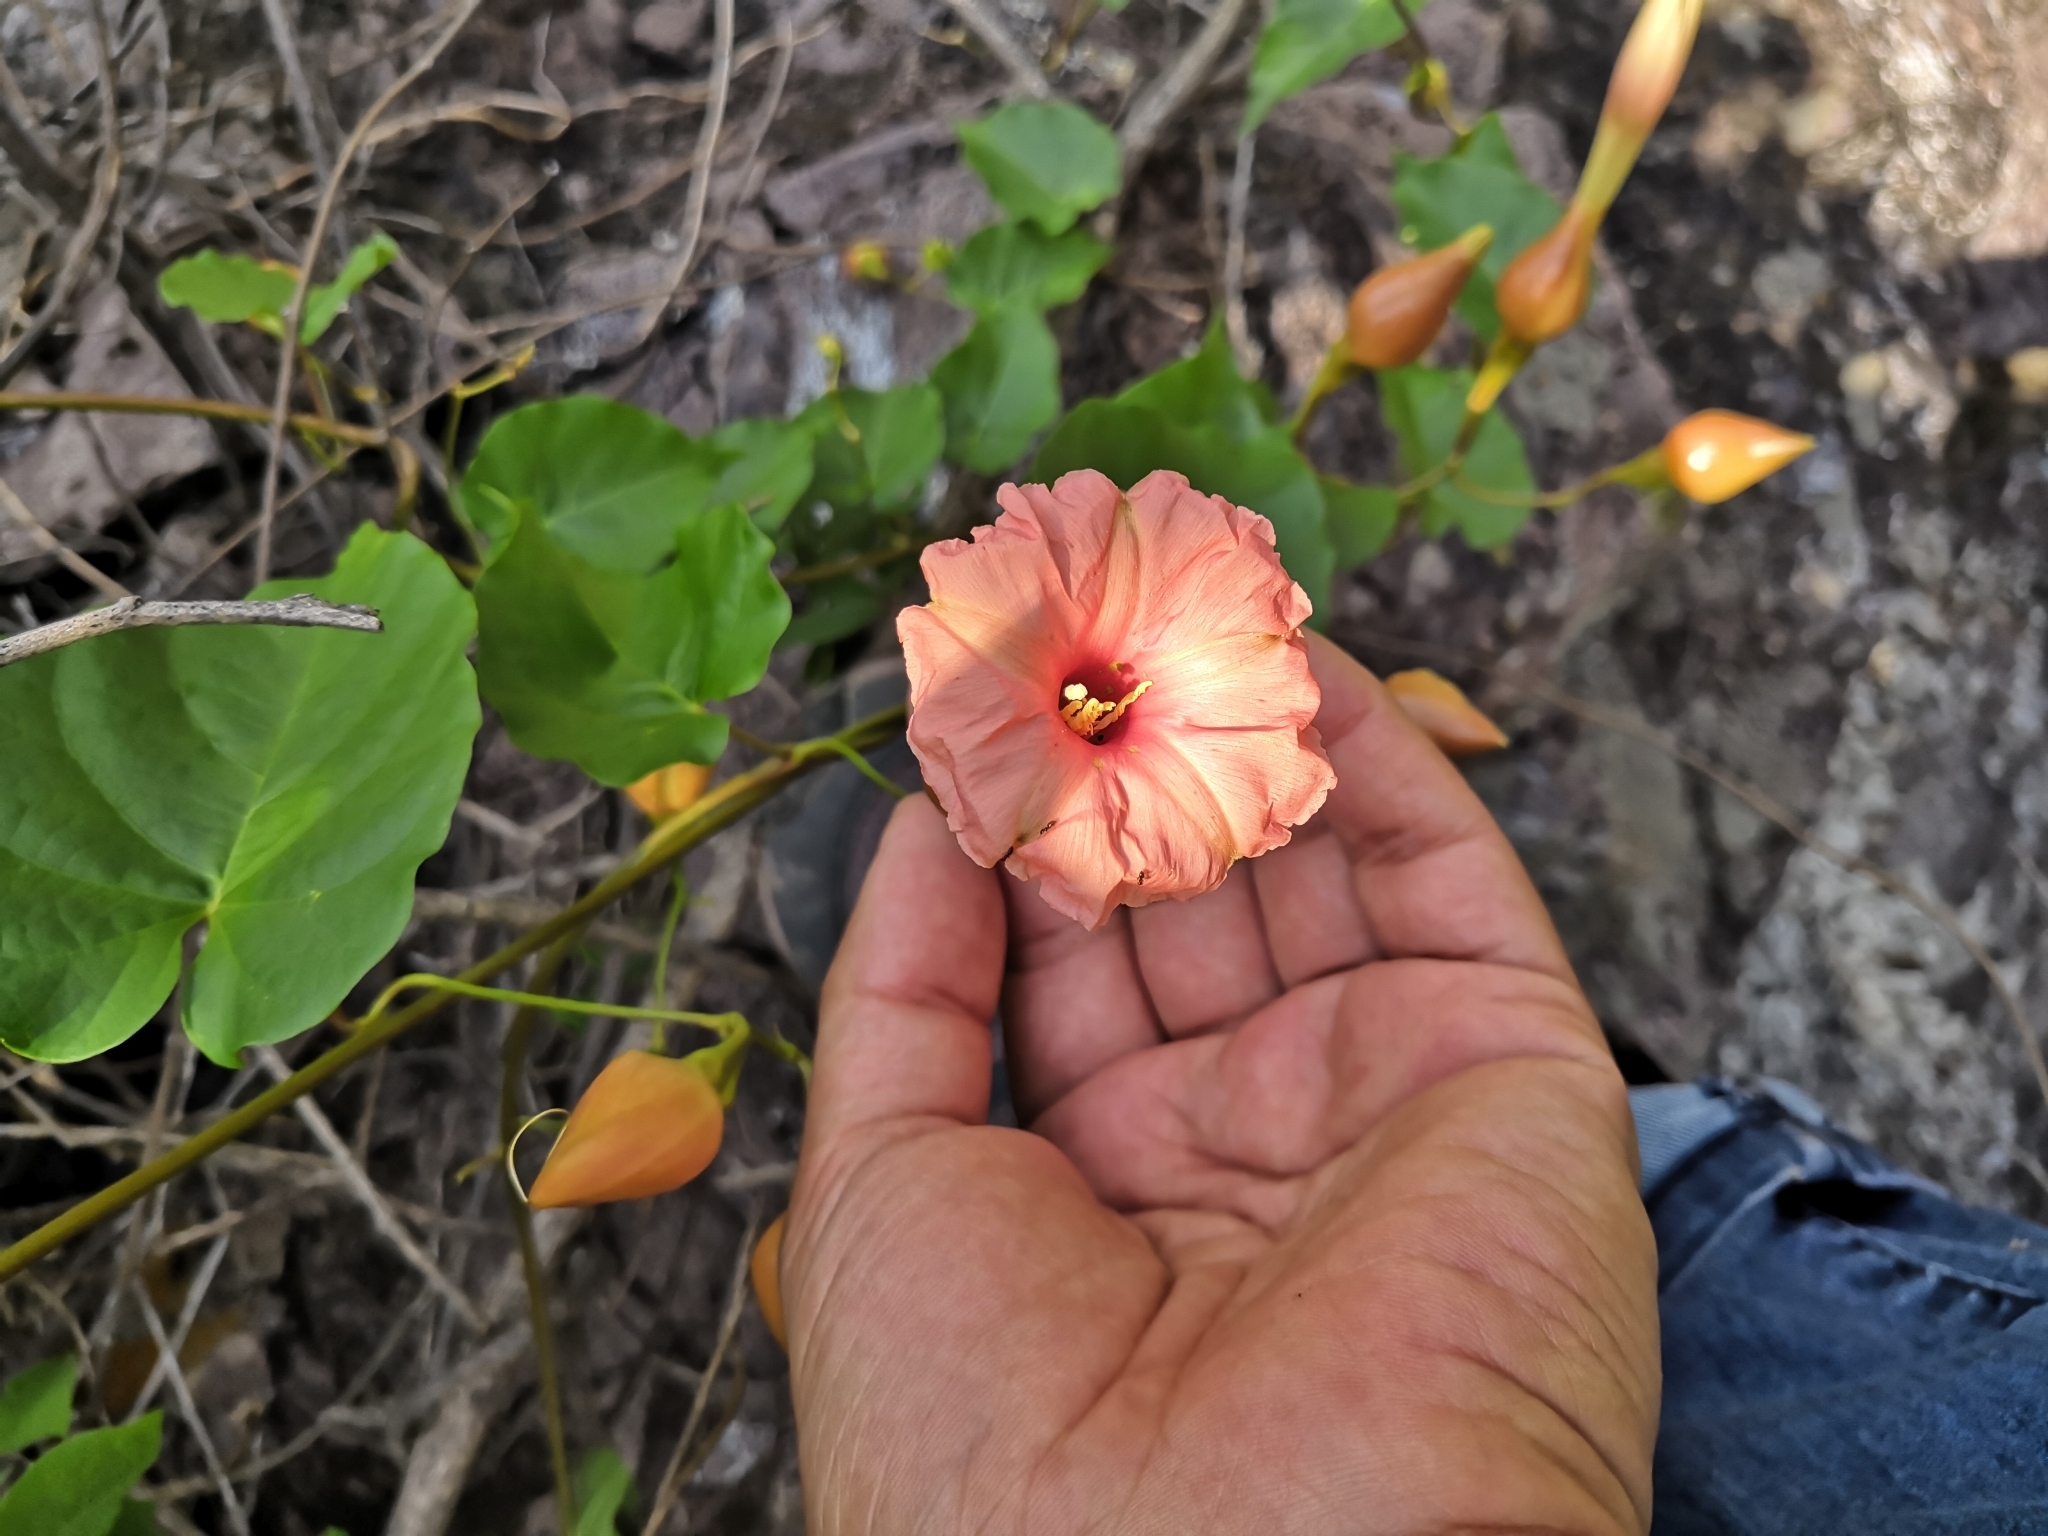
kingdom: Plantae
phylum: Tracheophyta
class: Magnoliopsida
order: Solanales
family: Convolvulaceae
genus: Operculina
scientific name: Operculina pteripes
